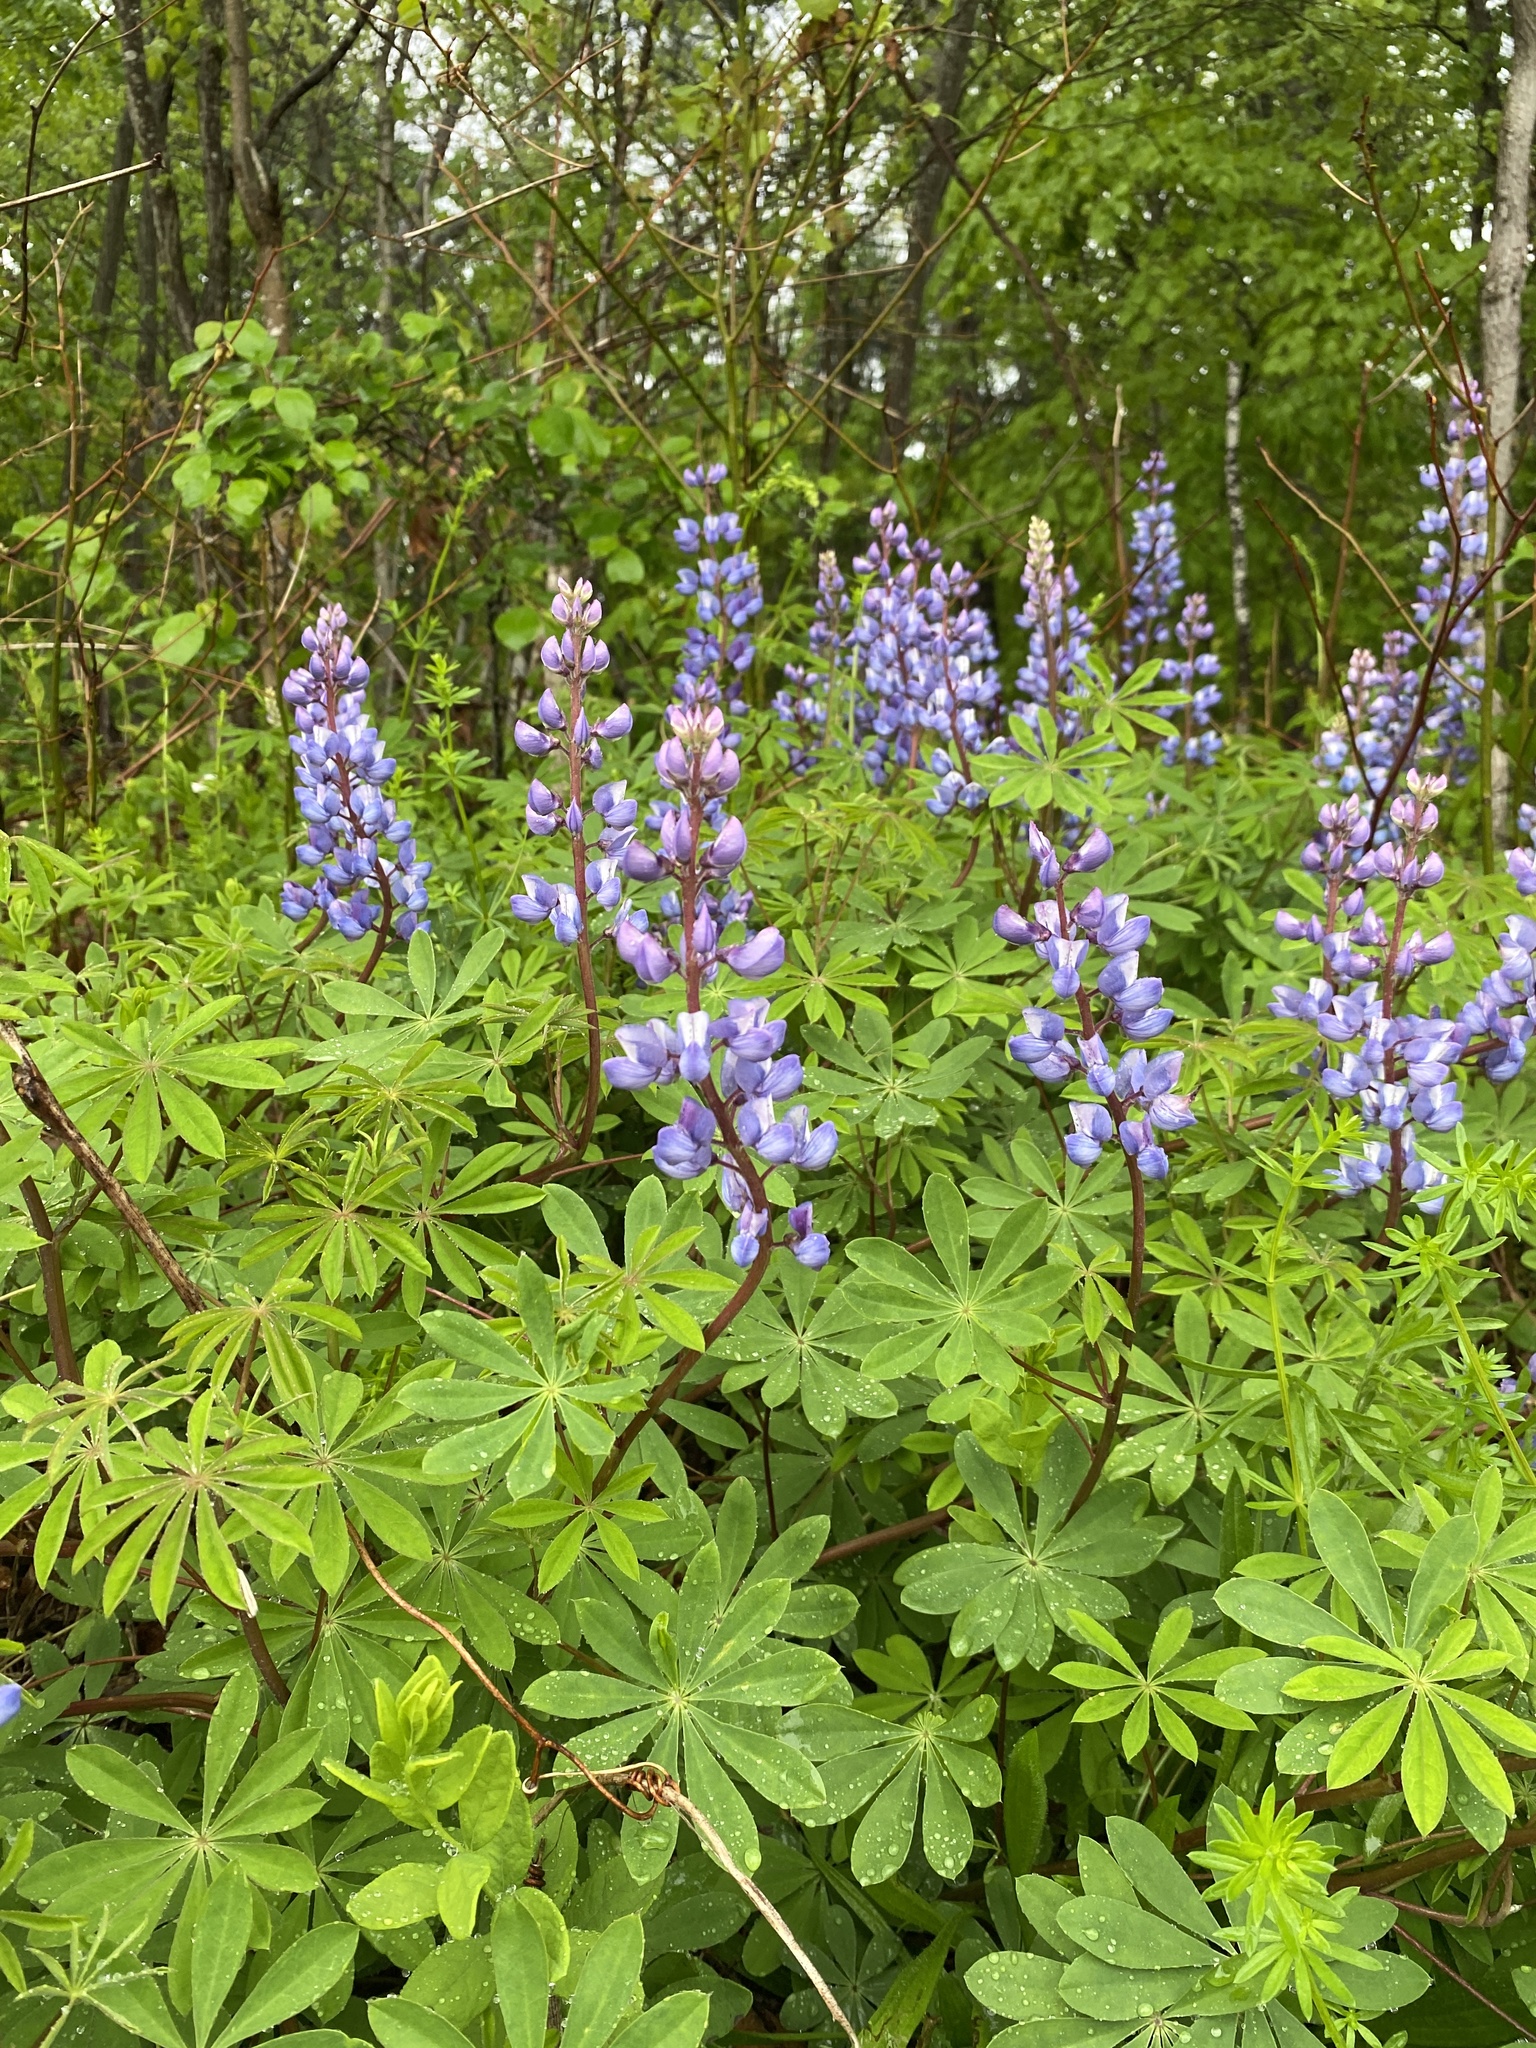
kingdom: Plantae
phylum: Tracheophyta
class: Magnoliopsida
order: Fabales
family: Fabaceae
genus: Lupinus
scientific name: Lupinus perennis
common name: Sundial lupine
